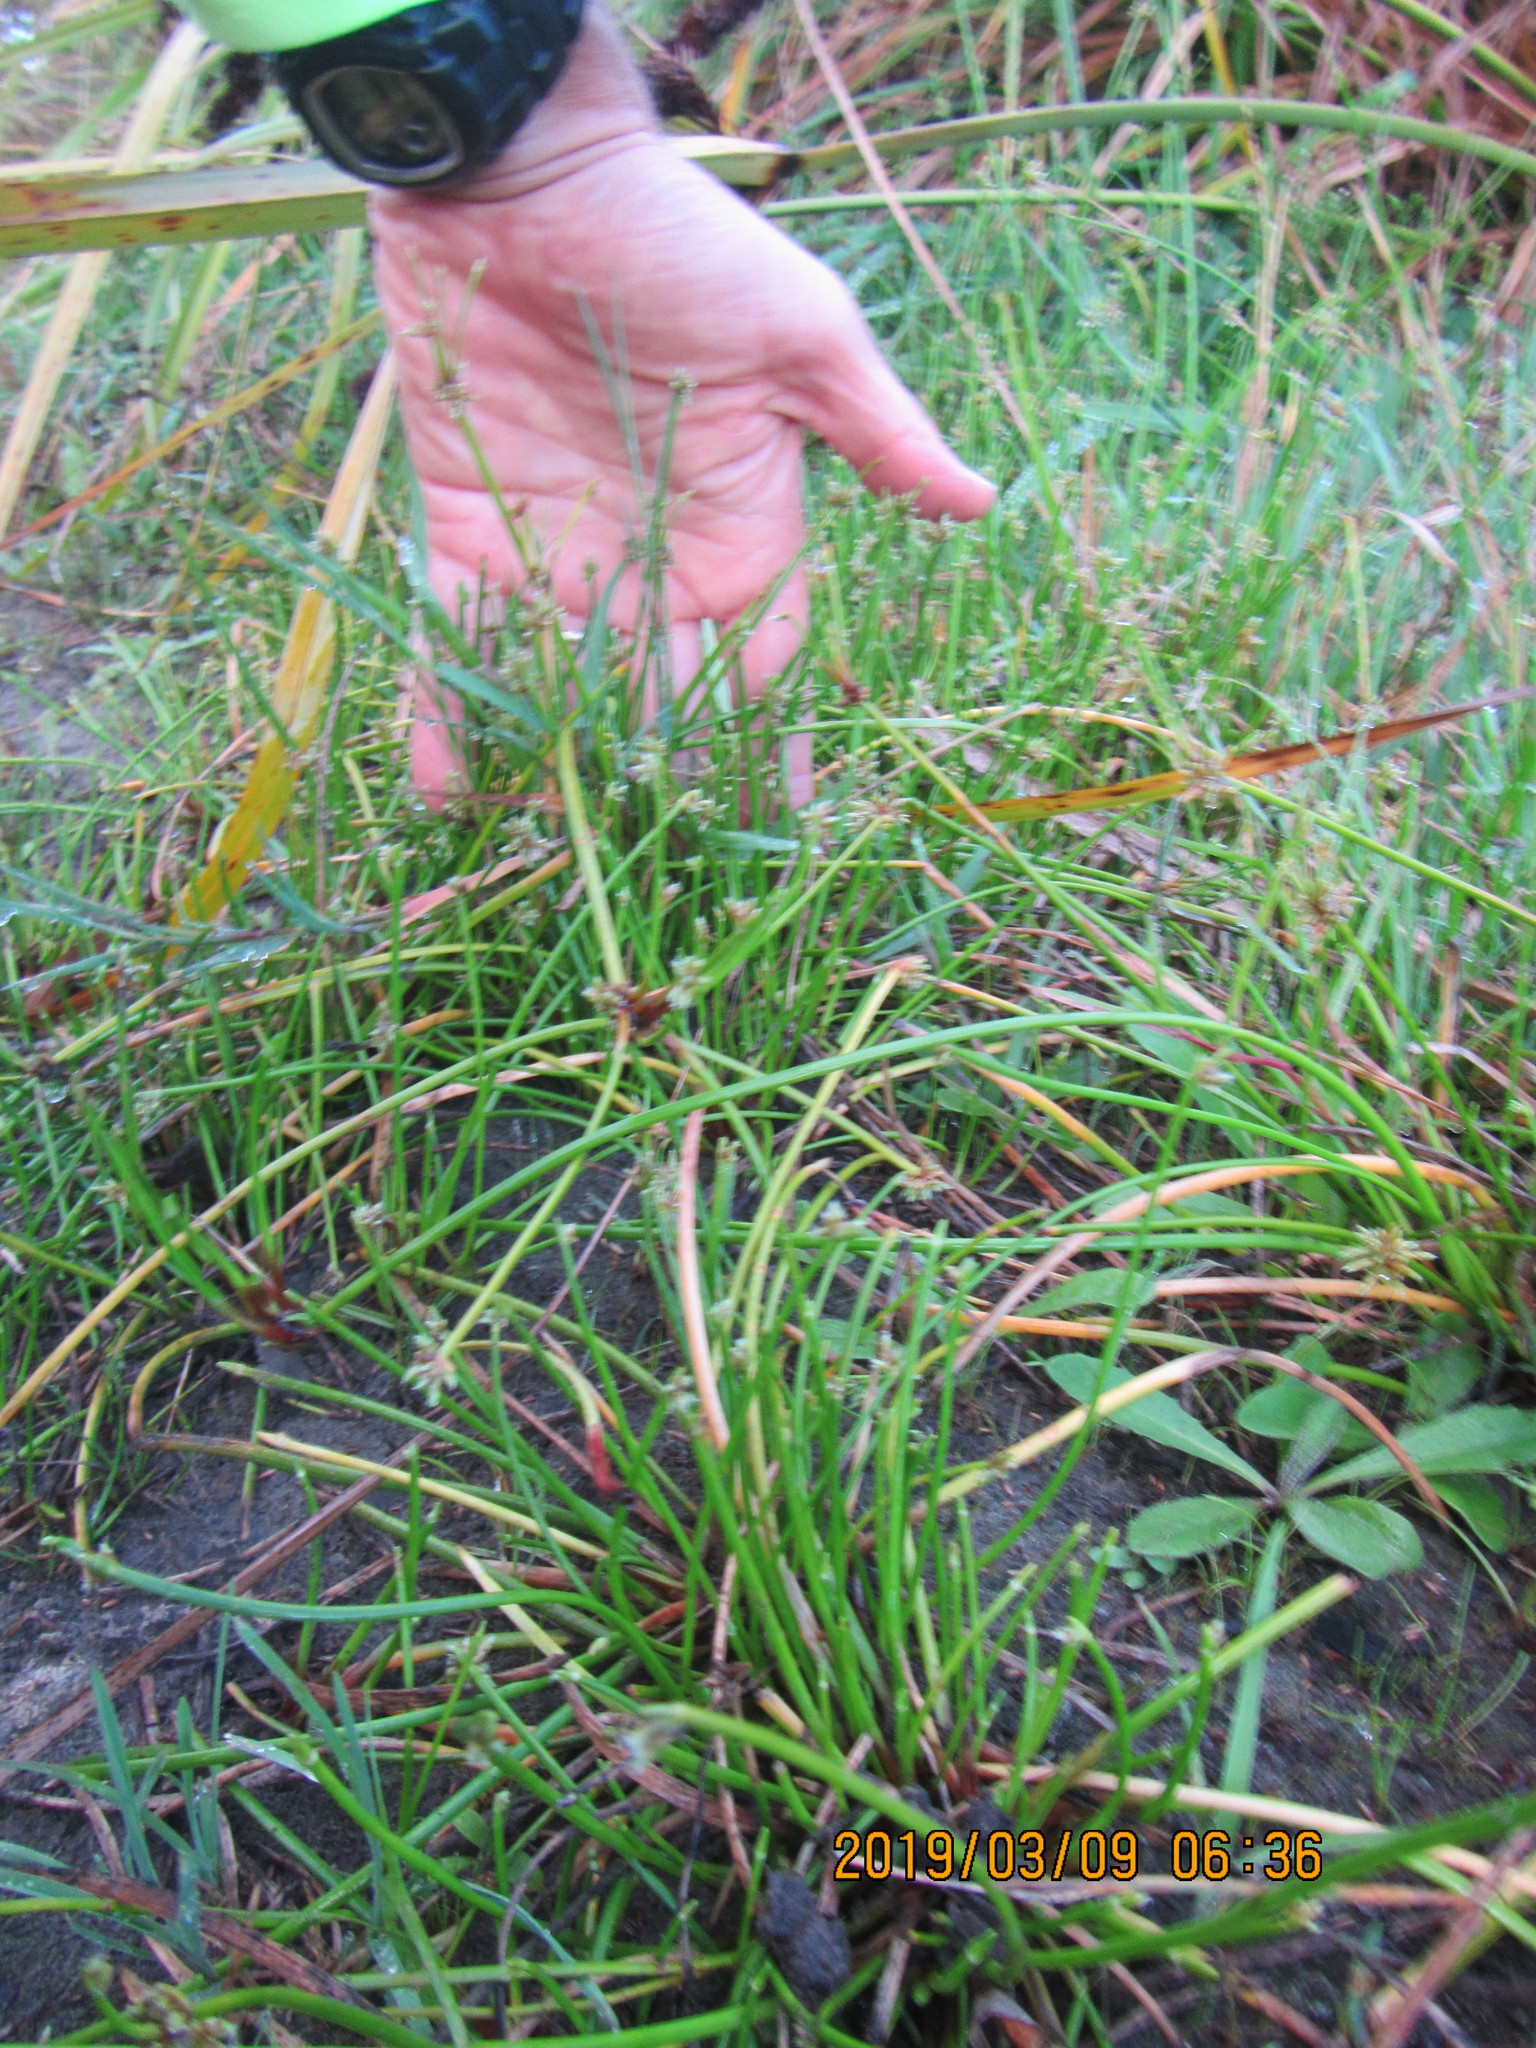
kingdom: Plantae
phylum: Tracheophyta
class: Liliopsida
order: Poales
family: Cyperaceae
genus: Isolepis
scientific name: Isolepis prolifera
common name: Proliferating bulrush
